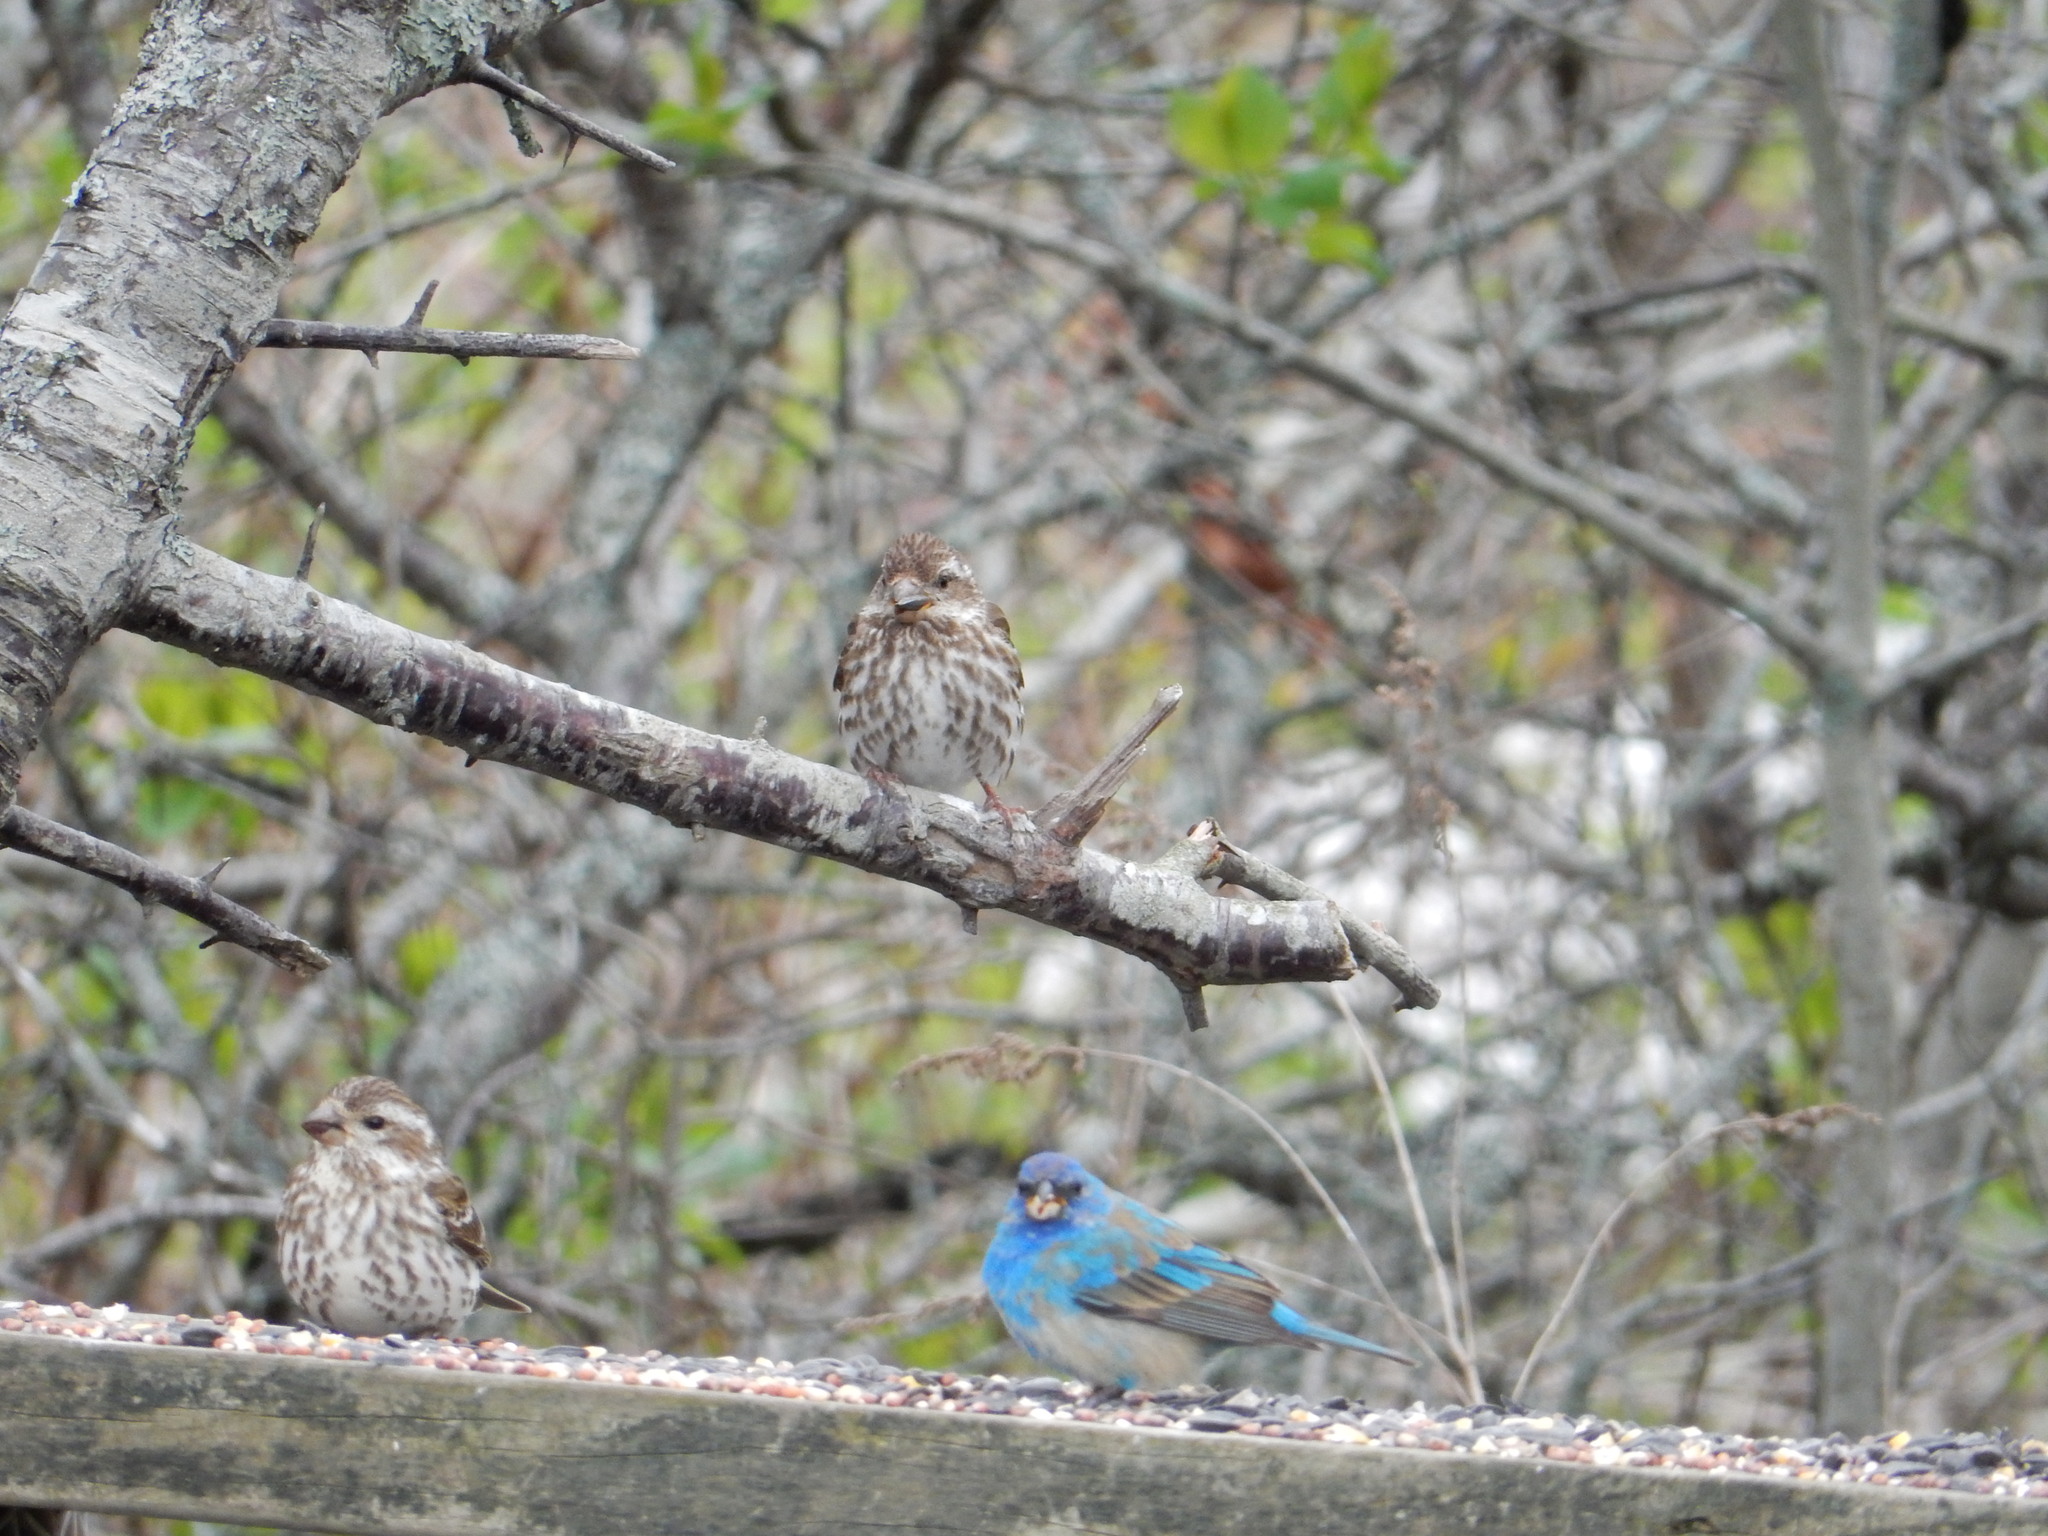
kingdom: Animalia
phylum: Chordata
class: Aves
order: Passeriformes
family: Cardinalidae
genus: Passerina
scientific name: Passerina cyanea
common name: Indigo bunting
